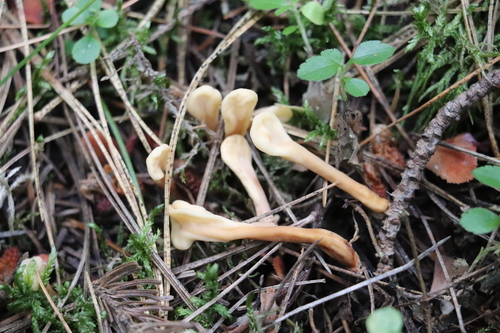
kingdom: Fungi
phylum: Ascomycota
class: Leotiomycetes
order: Rhytismatales
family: Cudoniaceae
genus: Spathularia
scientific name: Spathularia rufa
